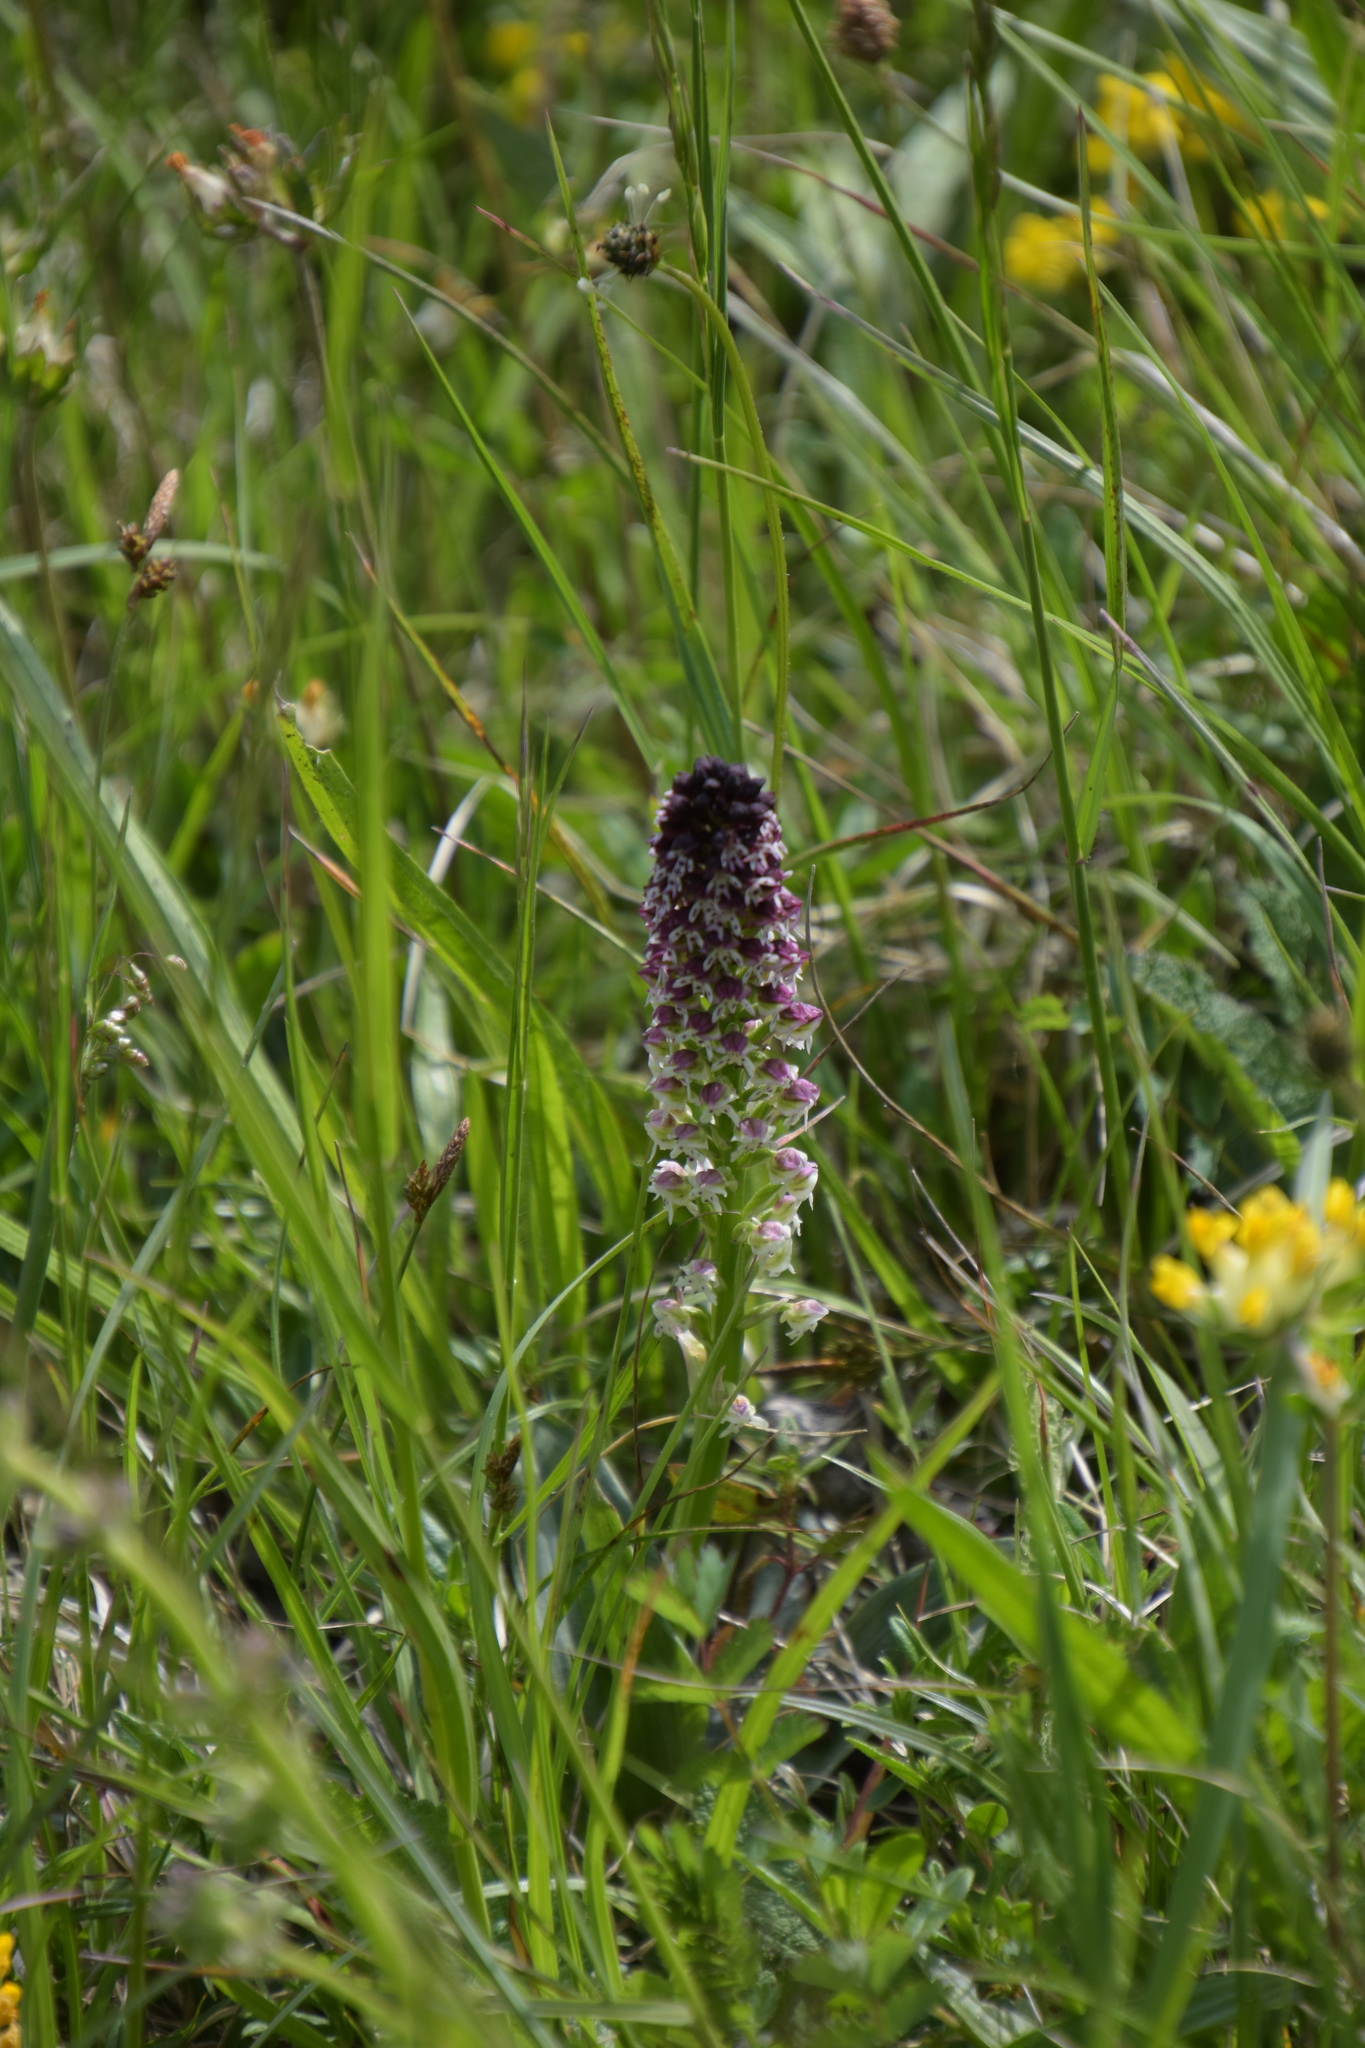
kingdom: Plantae
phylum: Tracheophyta
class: Liliopsida
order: Asparagales
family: Orchidaceae
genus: Neotinea
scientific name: Neotinea ustulata
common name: Burnt orchid
